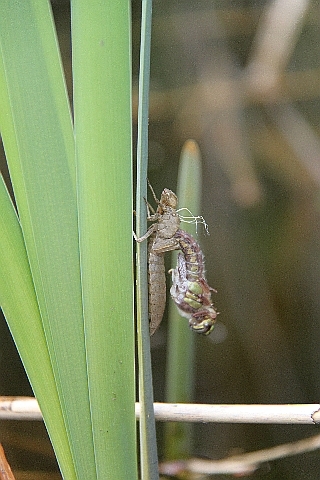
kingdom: Animalia
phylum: Arthropoda
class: Insecta
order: Odonata
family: Aeshnidae
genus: Brachytron
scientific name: Brachytron pratense
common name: Hairy hawker
